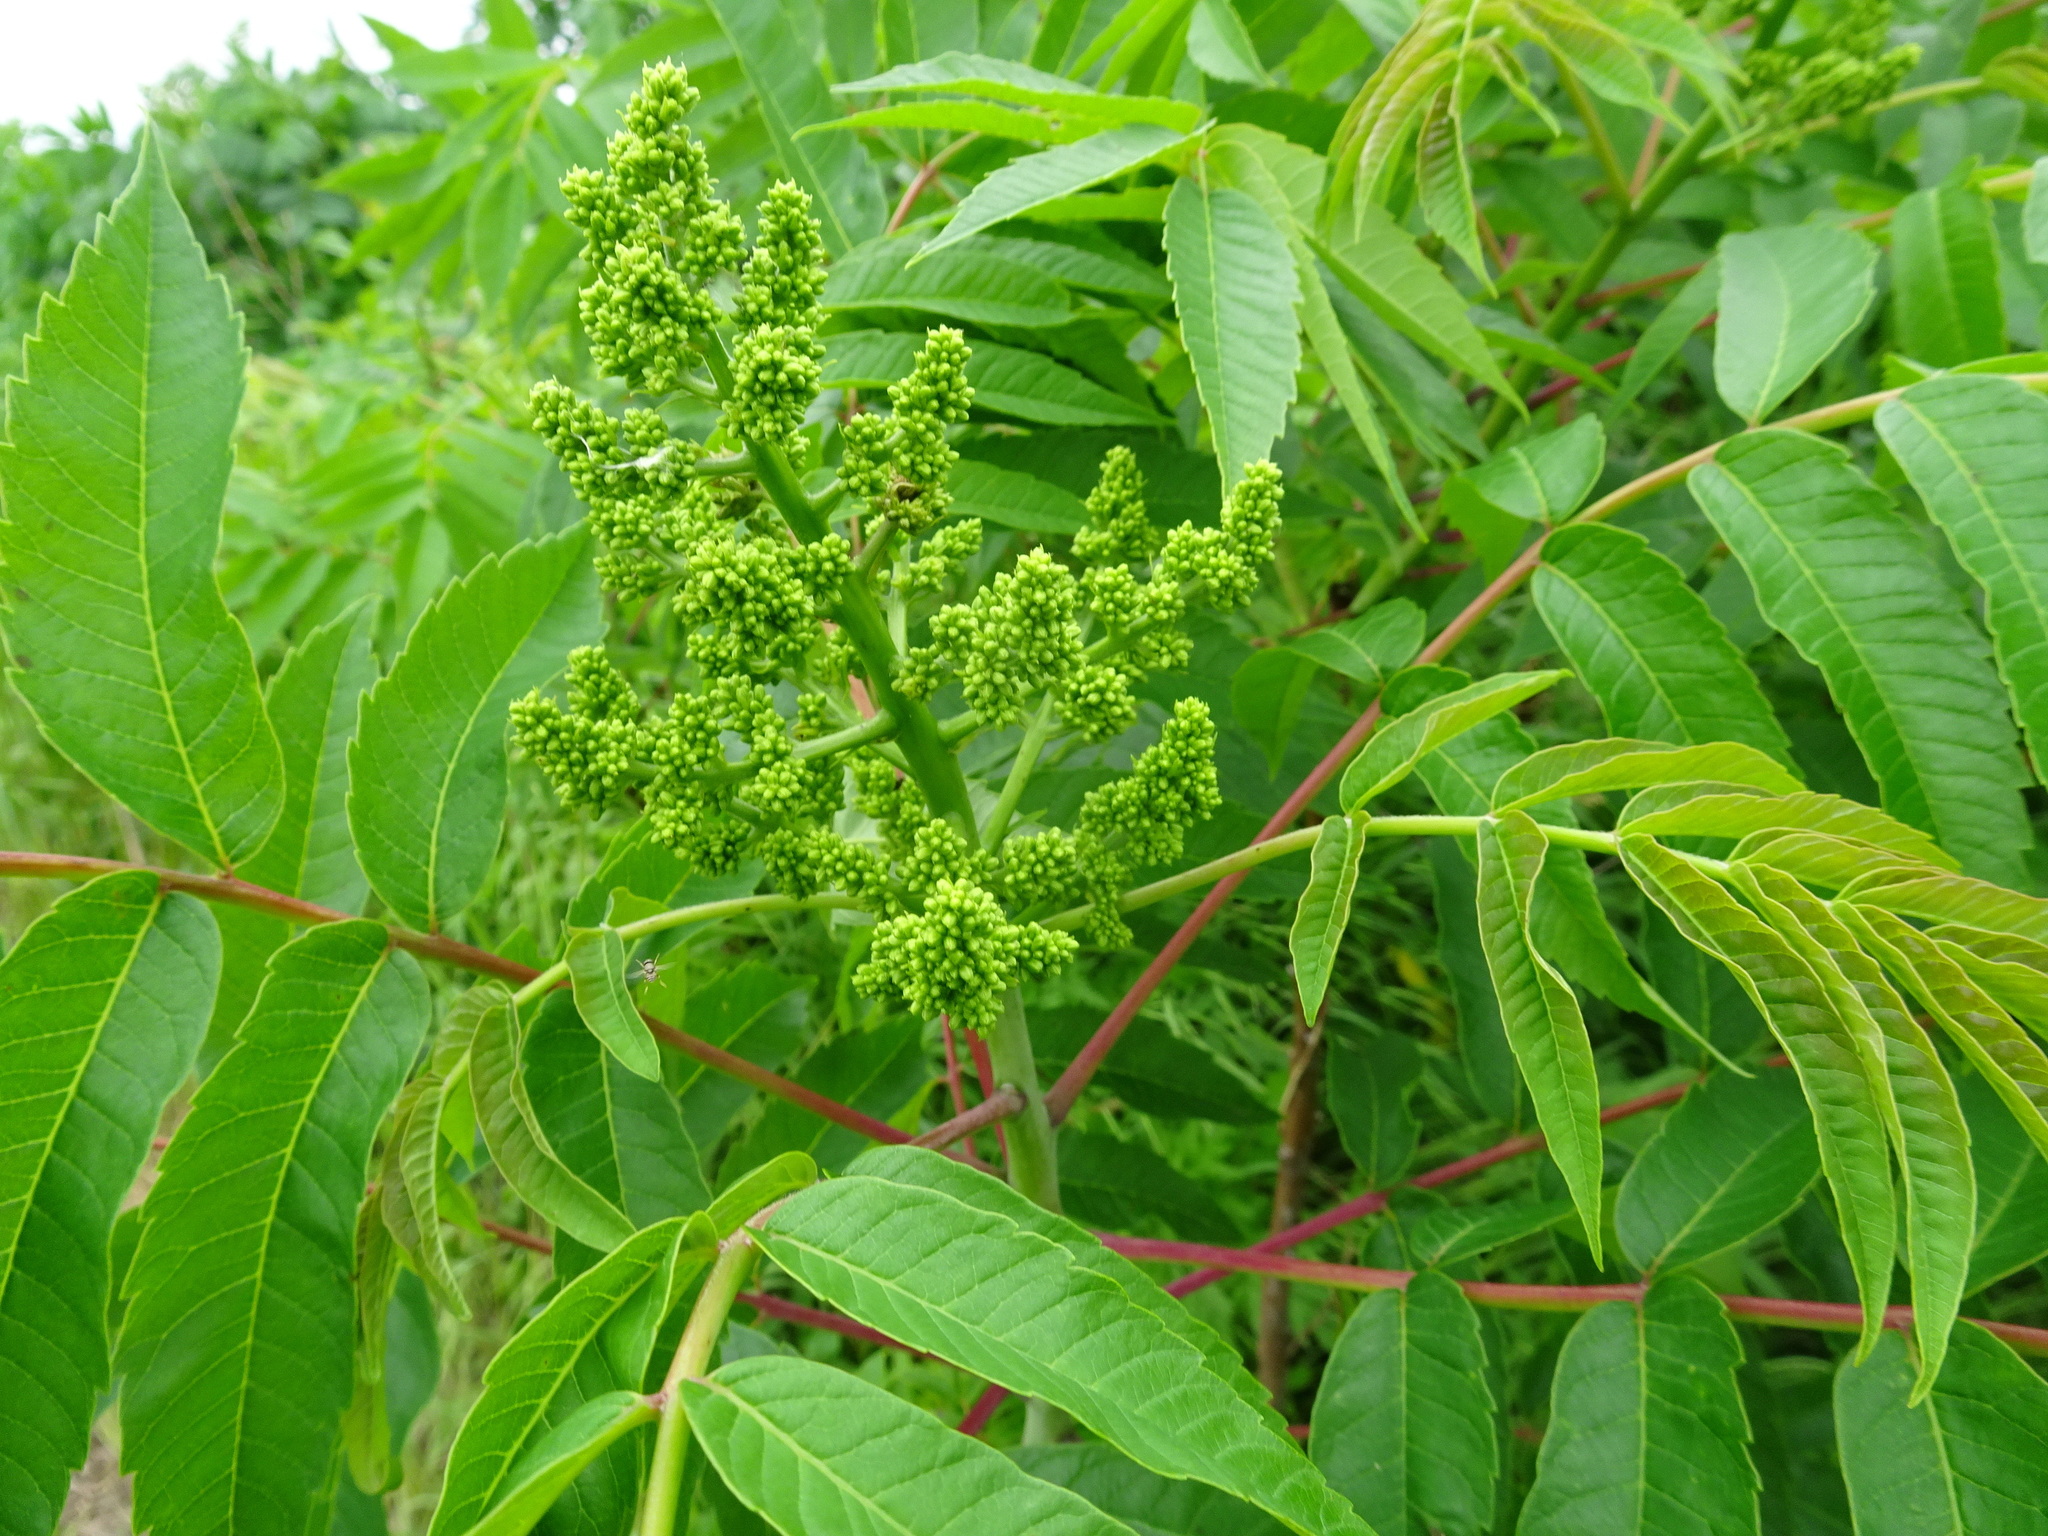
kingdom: Plantae
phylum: Tracheophyta
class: Magnoliopsida
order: Sapindales
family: Anacardiaceae
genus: Rhus
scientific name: Rhus glabra
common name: Scarlet sumac
